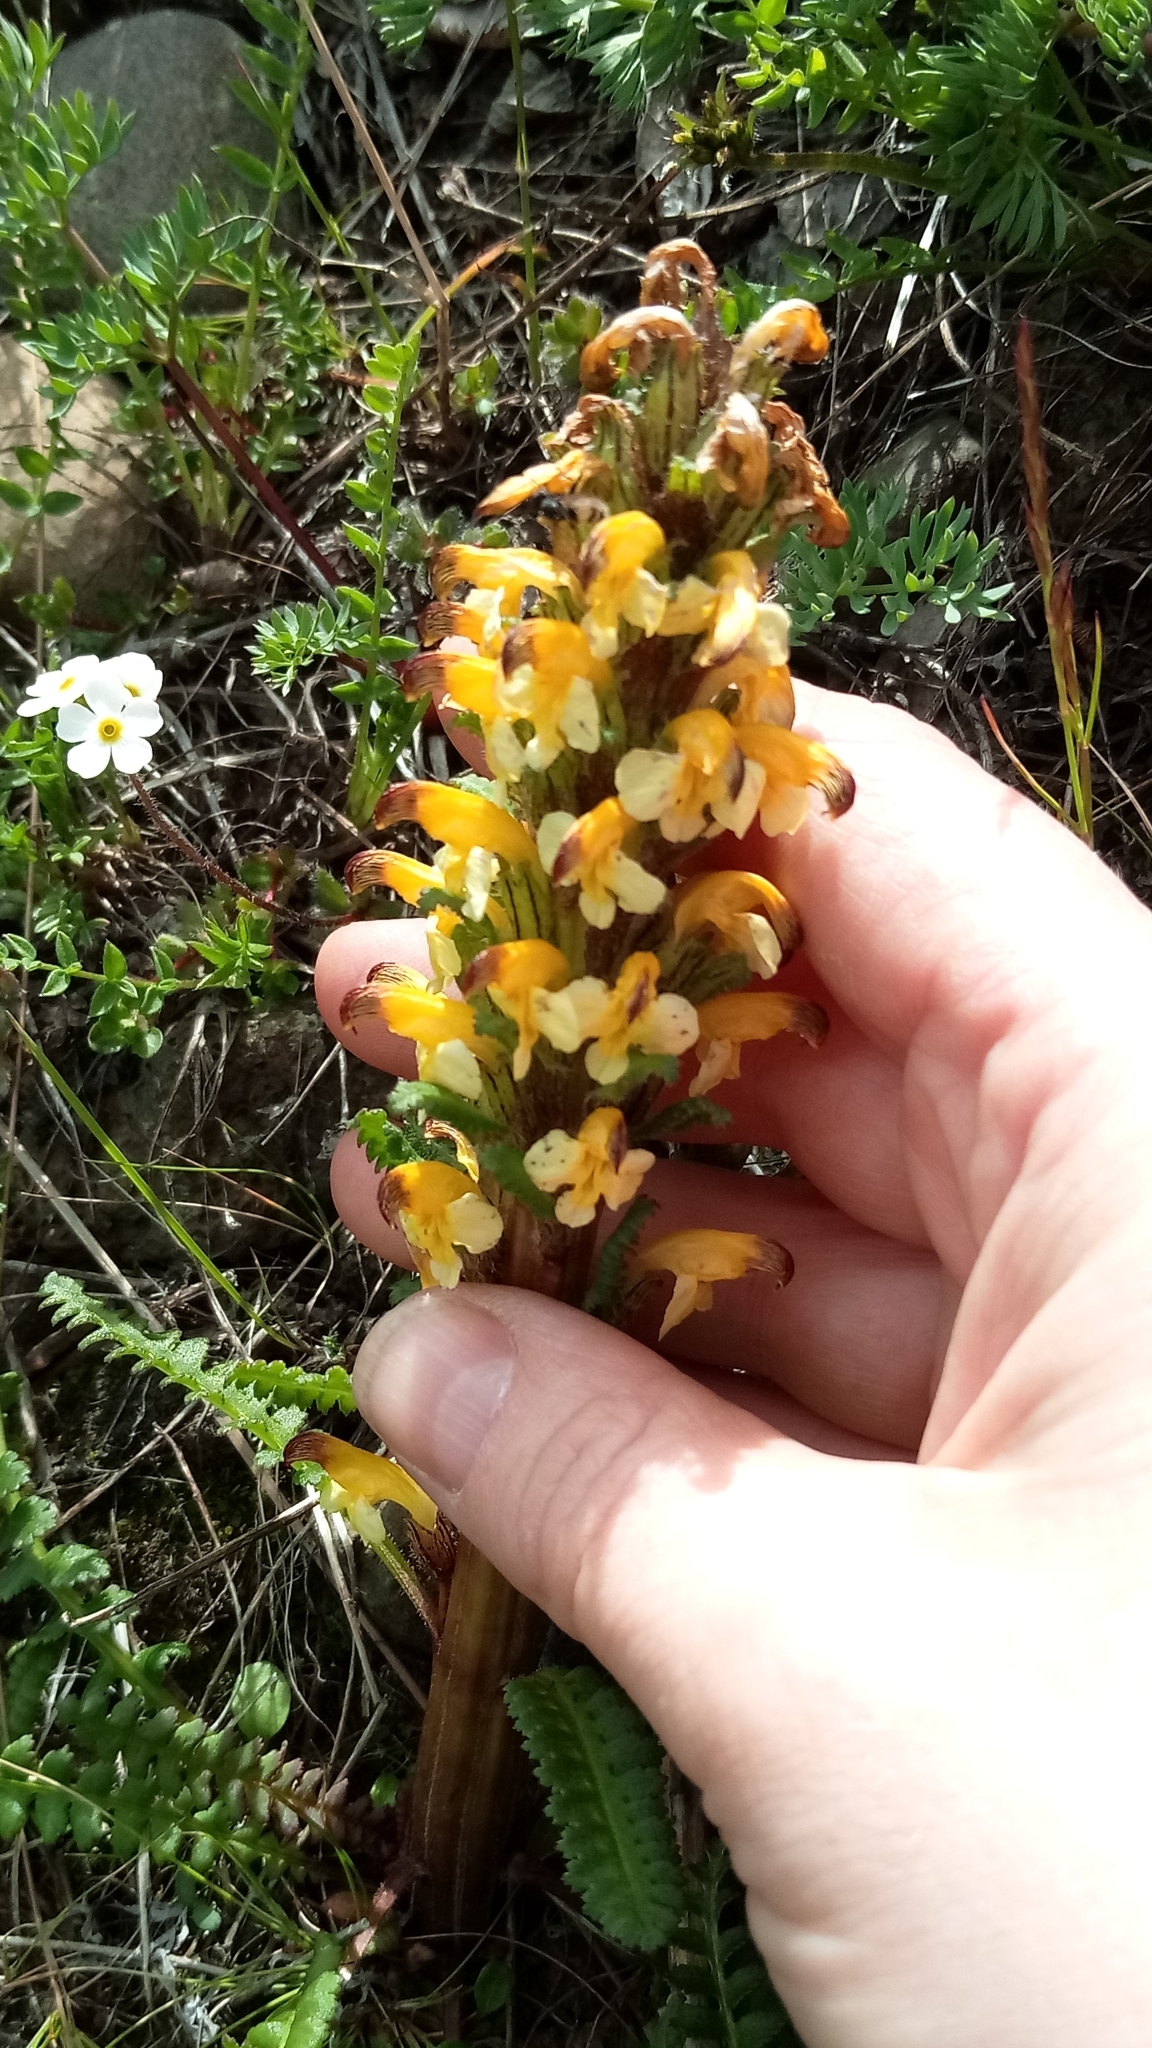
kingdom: Plantae
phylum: Tracheophyta
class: Magnoliopsida
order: Lamiales
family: Orobanchaceae
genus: Pedicularis
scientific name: Pedicularis oederi
